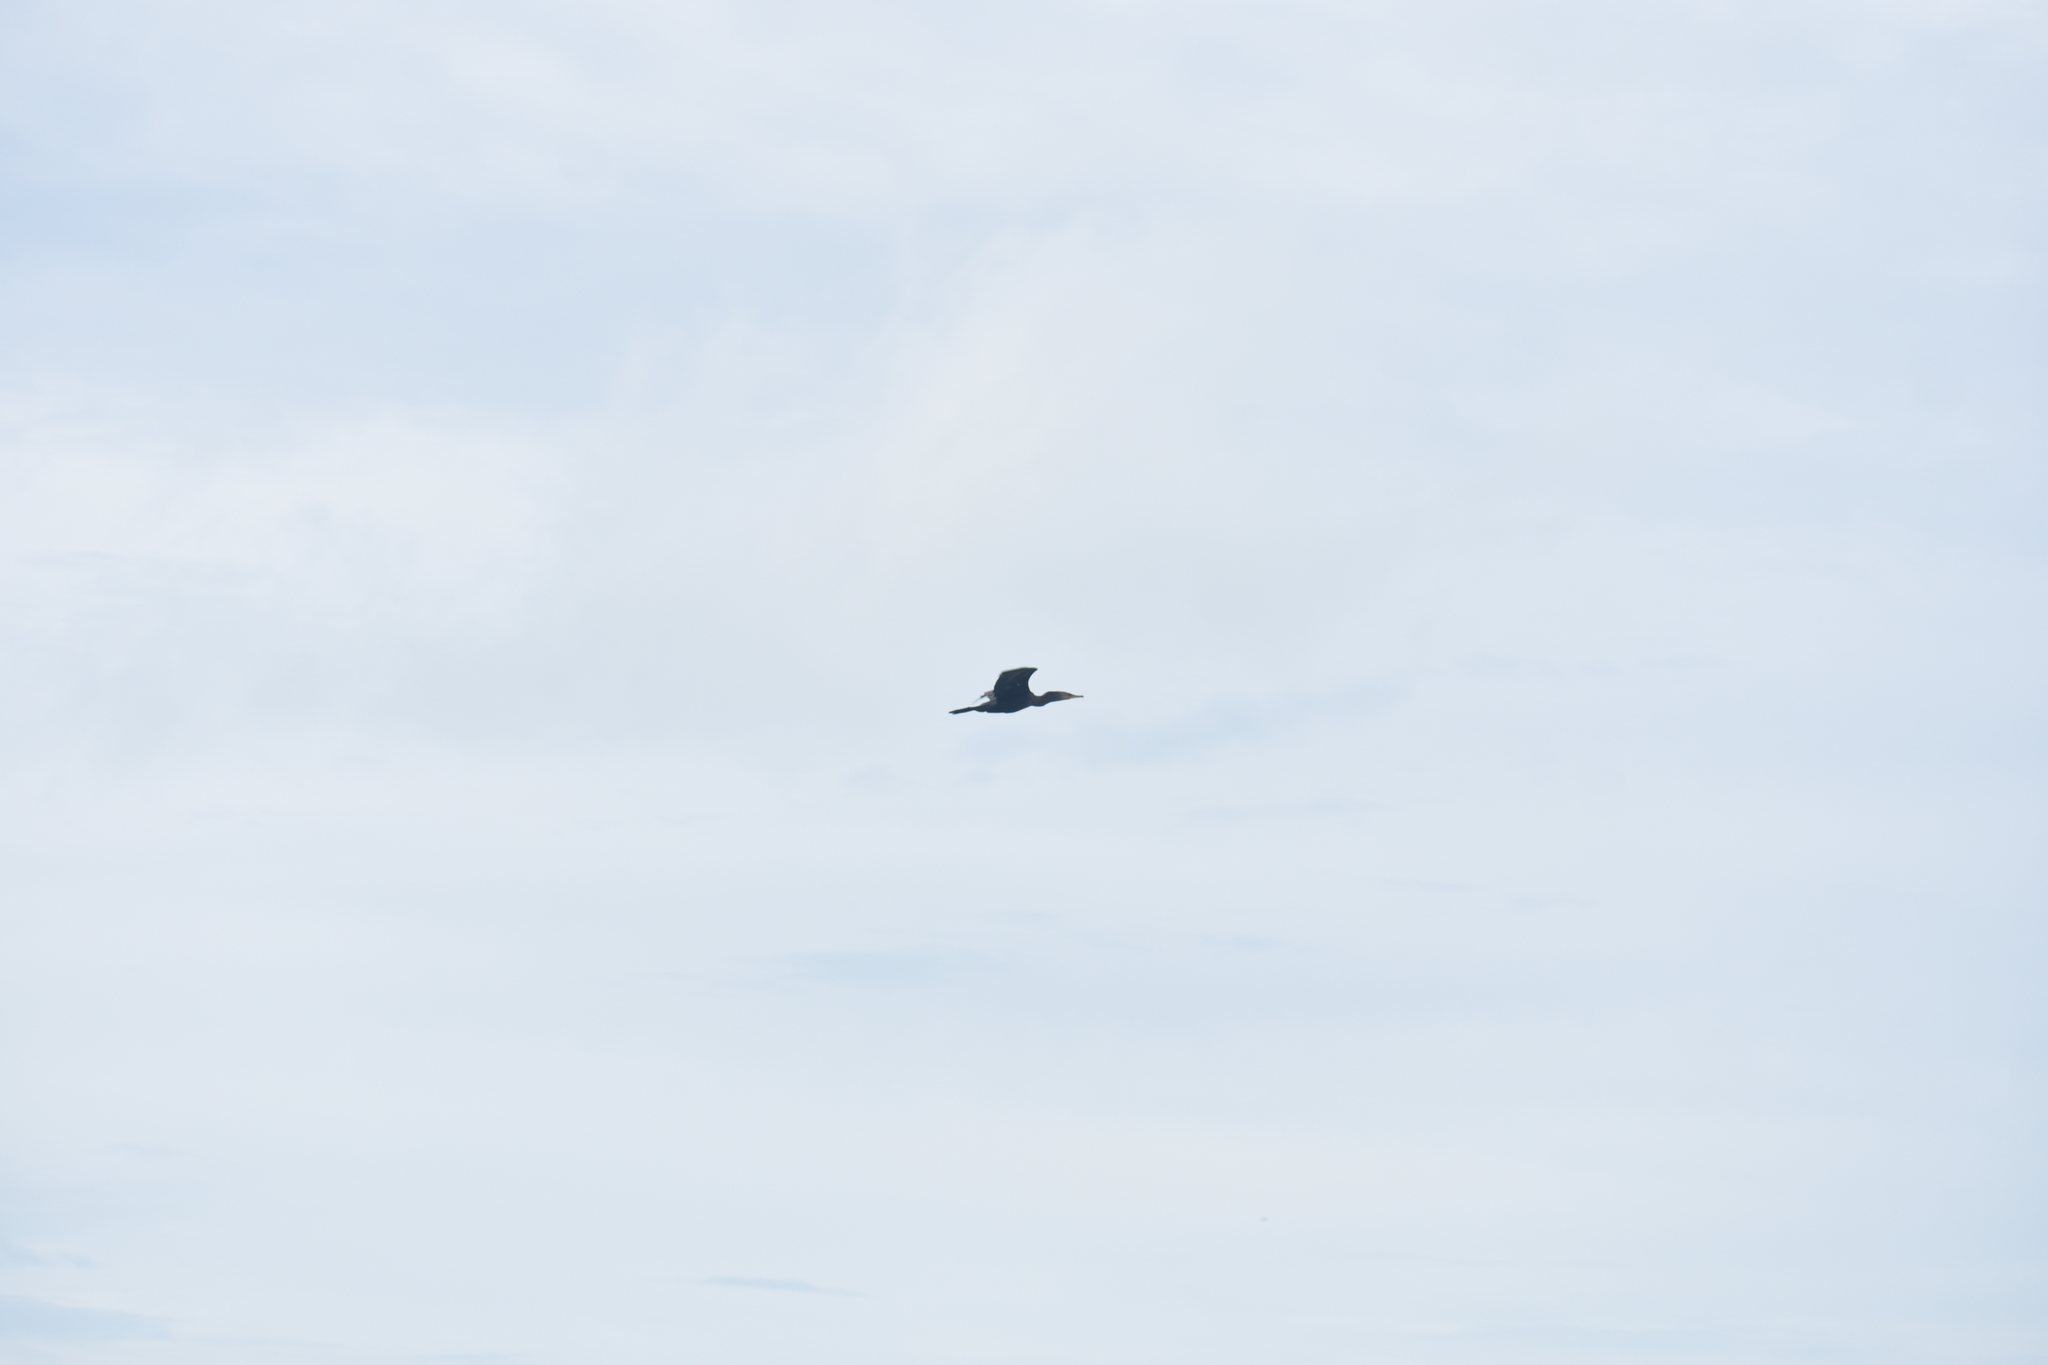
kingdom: Animalia
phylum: Chordata
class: Aves
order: Suliformes
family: Phalacrocoracidae
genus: Phalacrocorax
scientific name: Phalacrocorax brasilianus
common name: Neotropic cormorant
